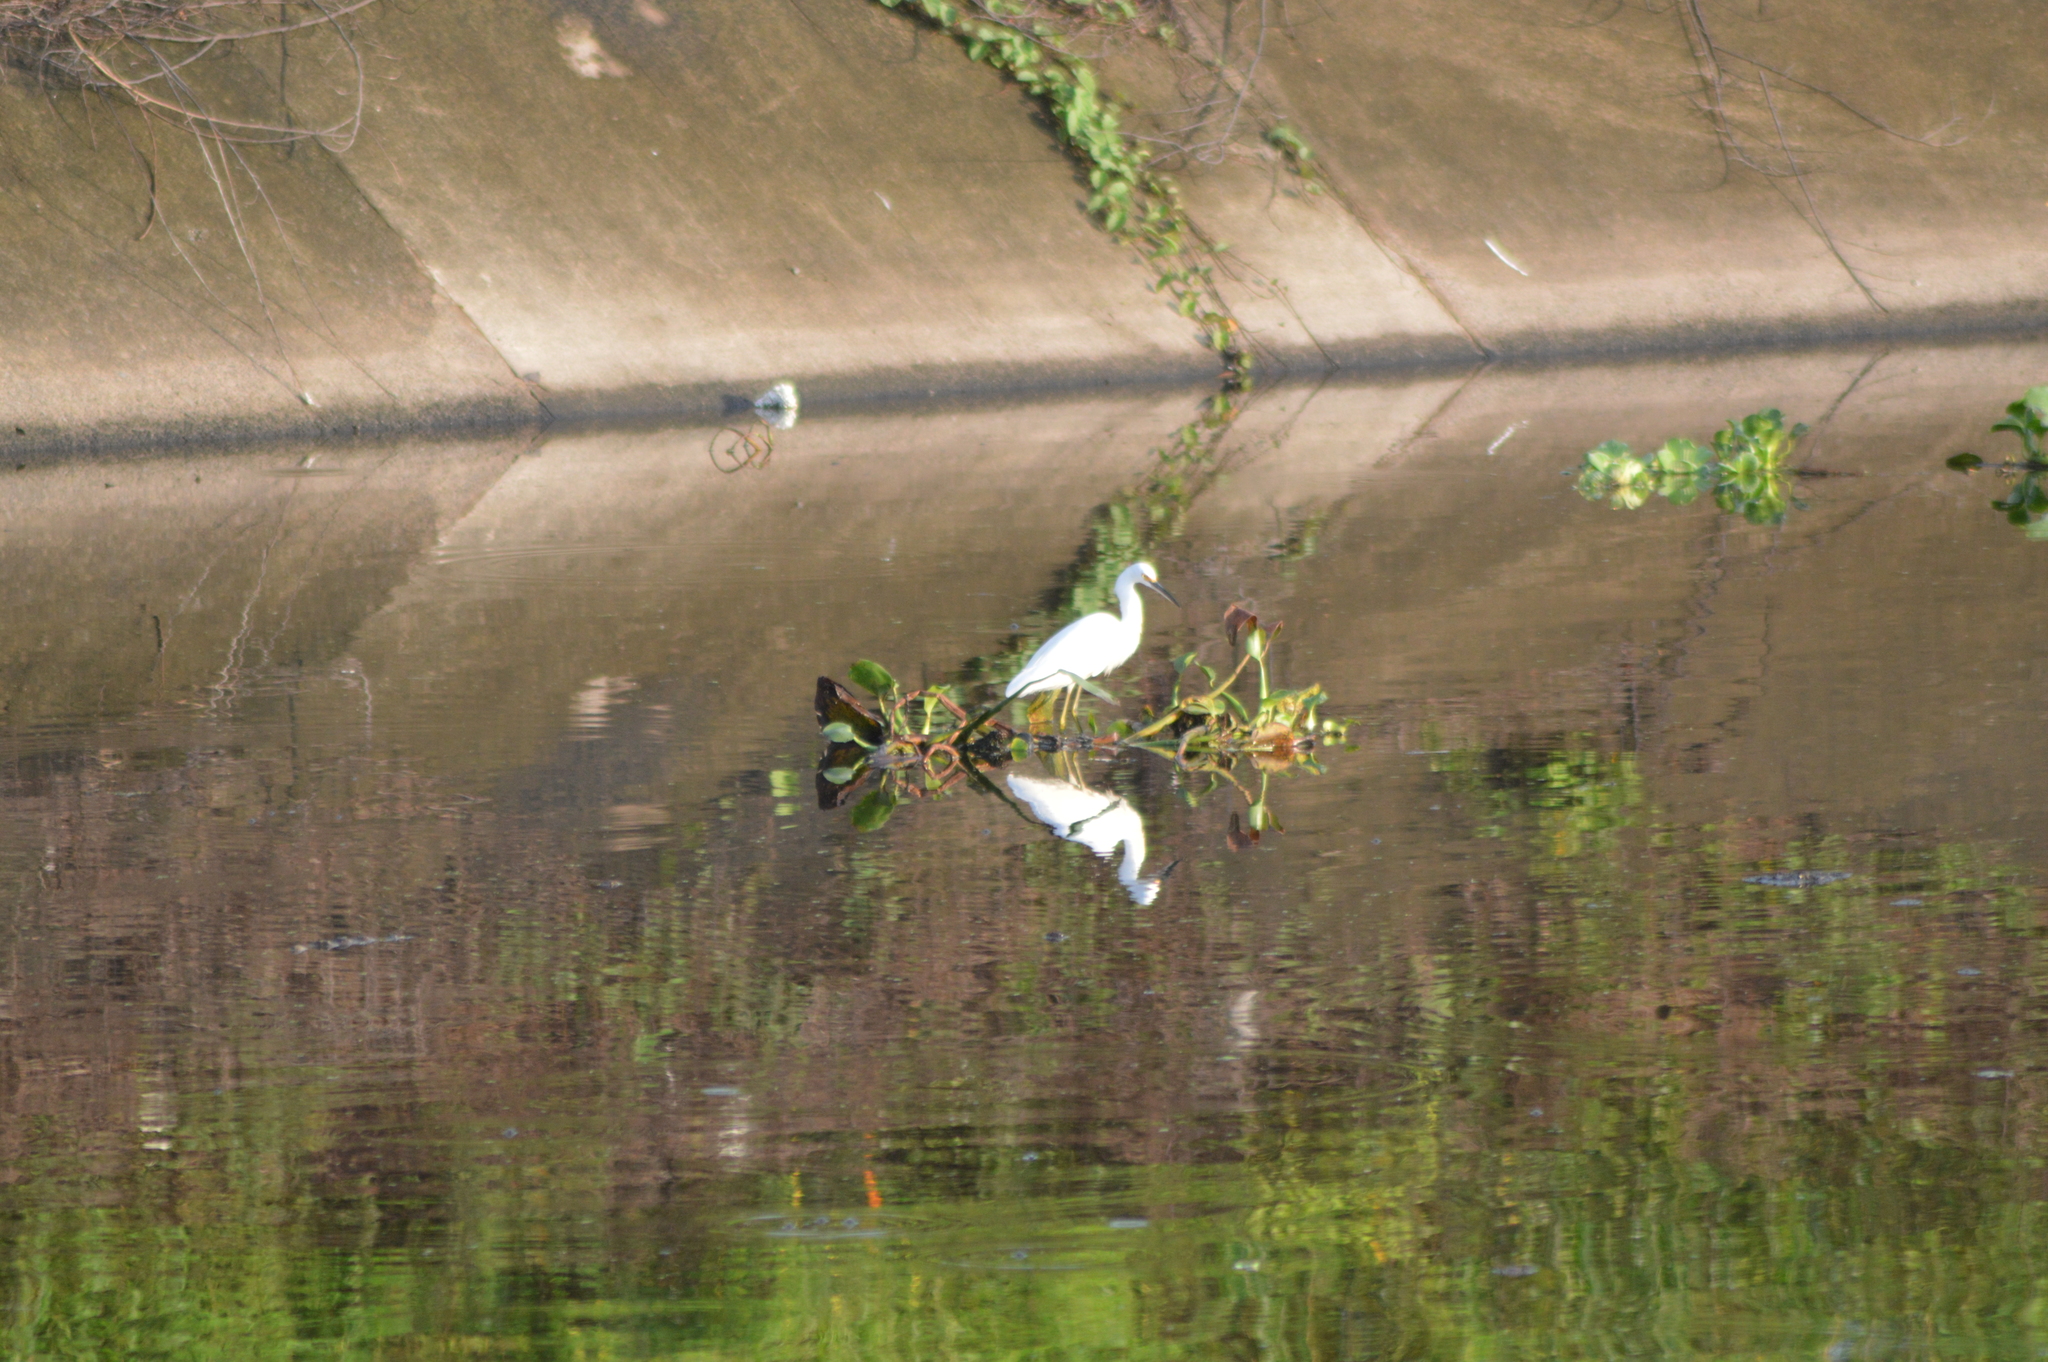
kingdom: Animalia
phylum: Chordata
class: Aves
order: Pelecaniformes
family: Ardeidae
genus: Egretta
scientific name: Egretta thula
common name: Snowy egret
